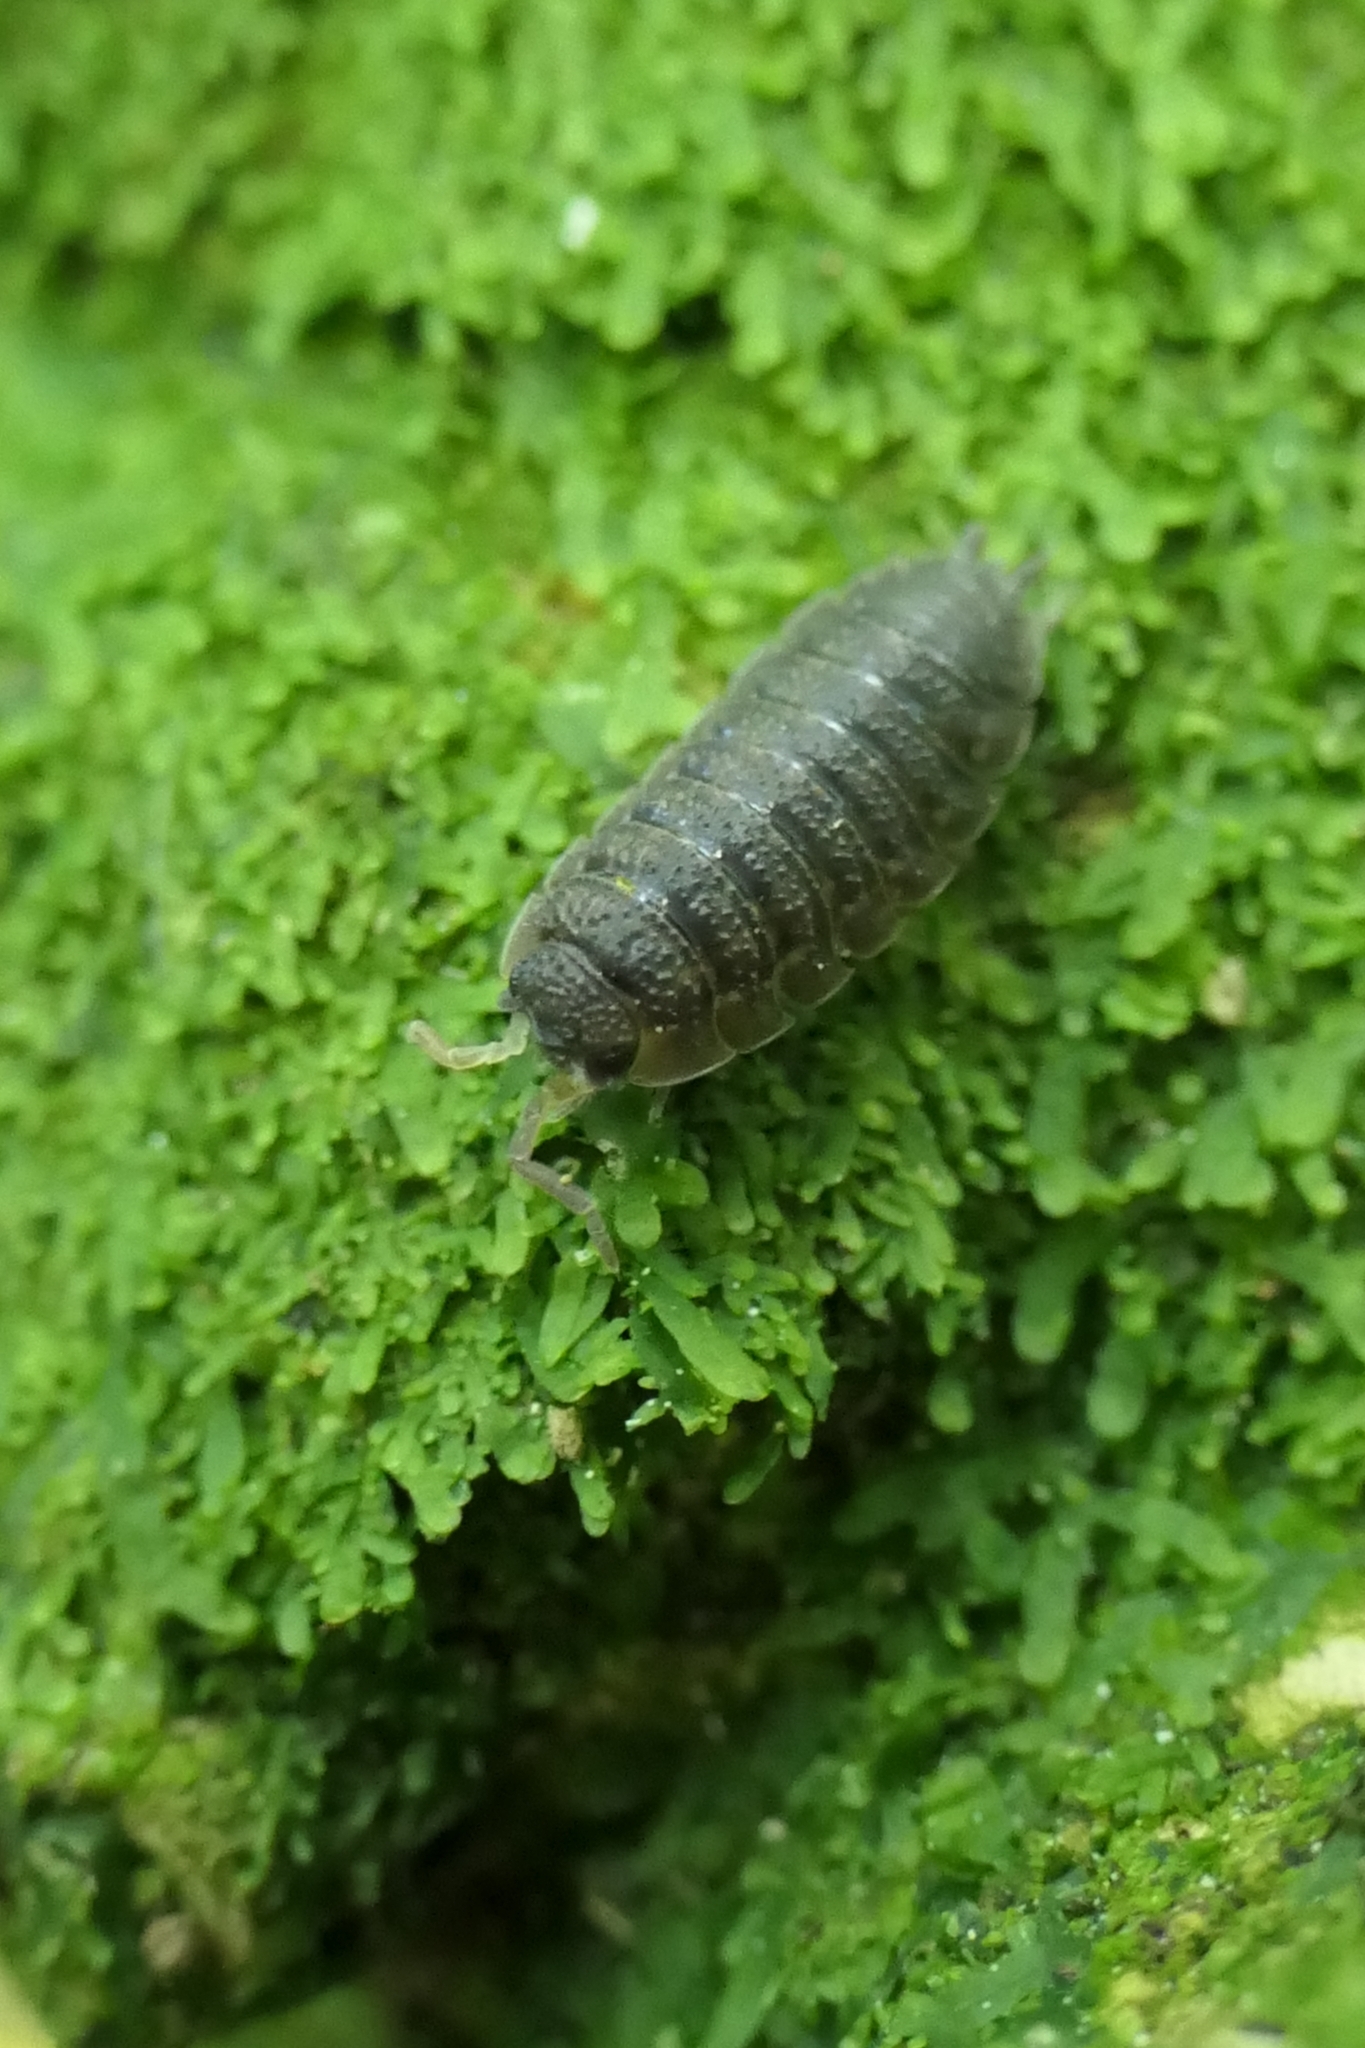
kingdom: Animalia
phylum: Arthropoda
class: Malacostraca
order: Isopoda
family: Porcellionidae
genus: Porcellio
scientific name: Porcellio scaber
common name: Common rough woodlouse
